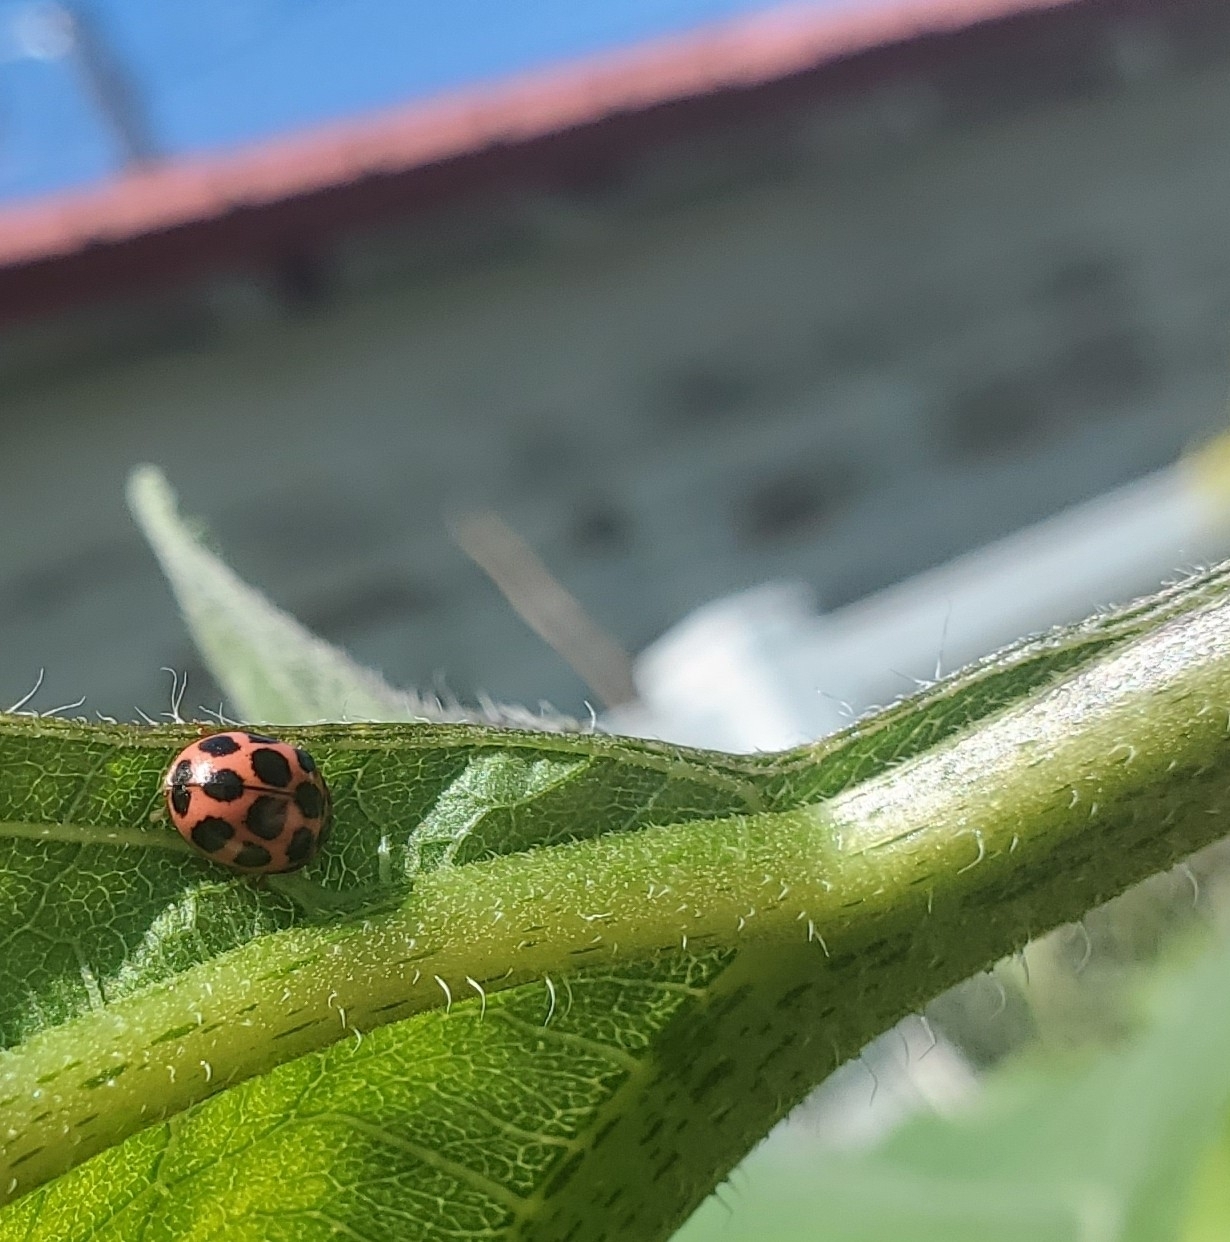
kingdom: Animalia
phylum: Arthropoda
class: Insecta
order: Coleoptera
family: Coccinellidae
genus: Calvia
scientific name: Calvia quatuordecimguttata
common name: Cream-spot ladybird
